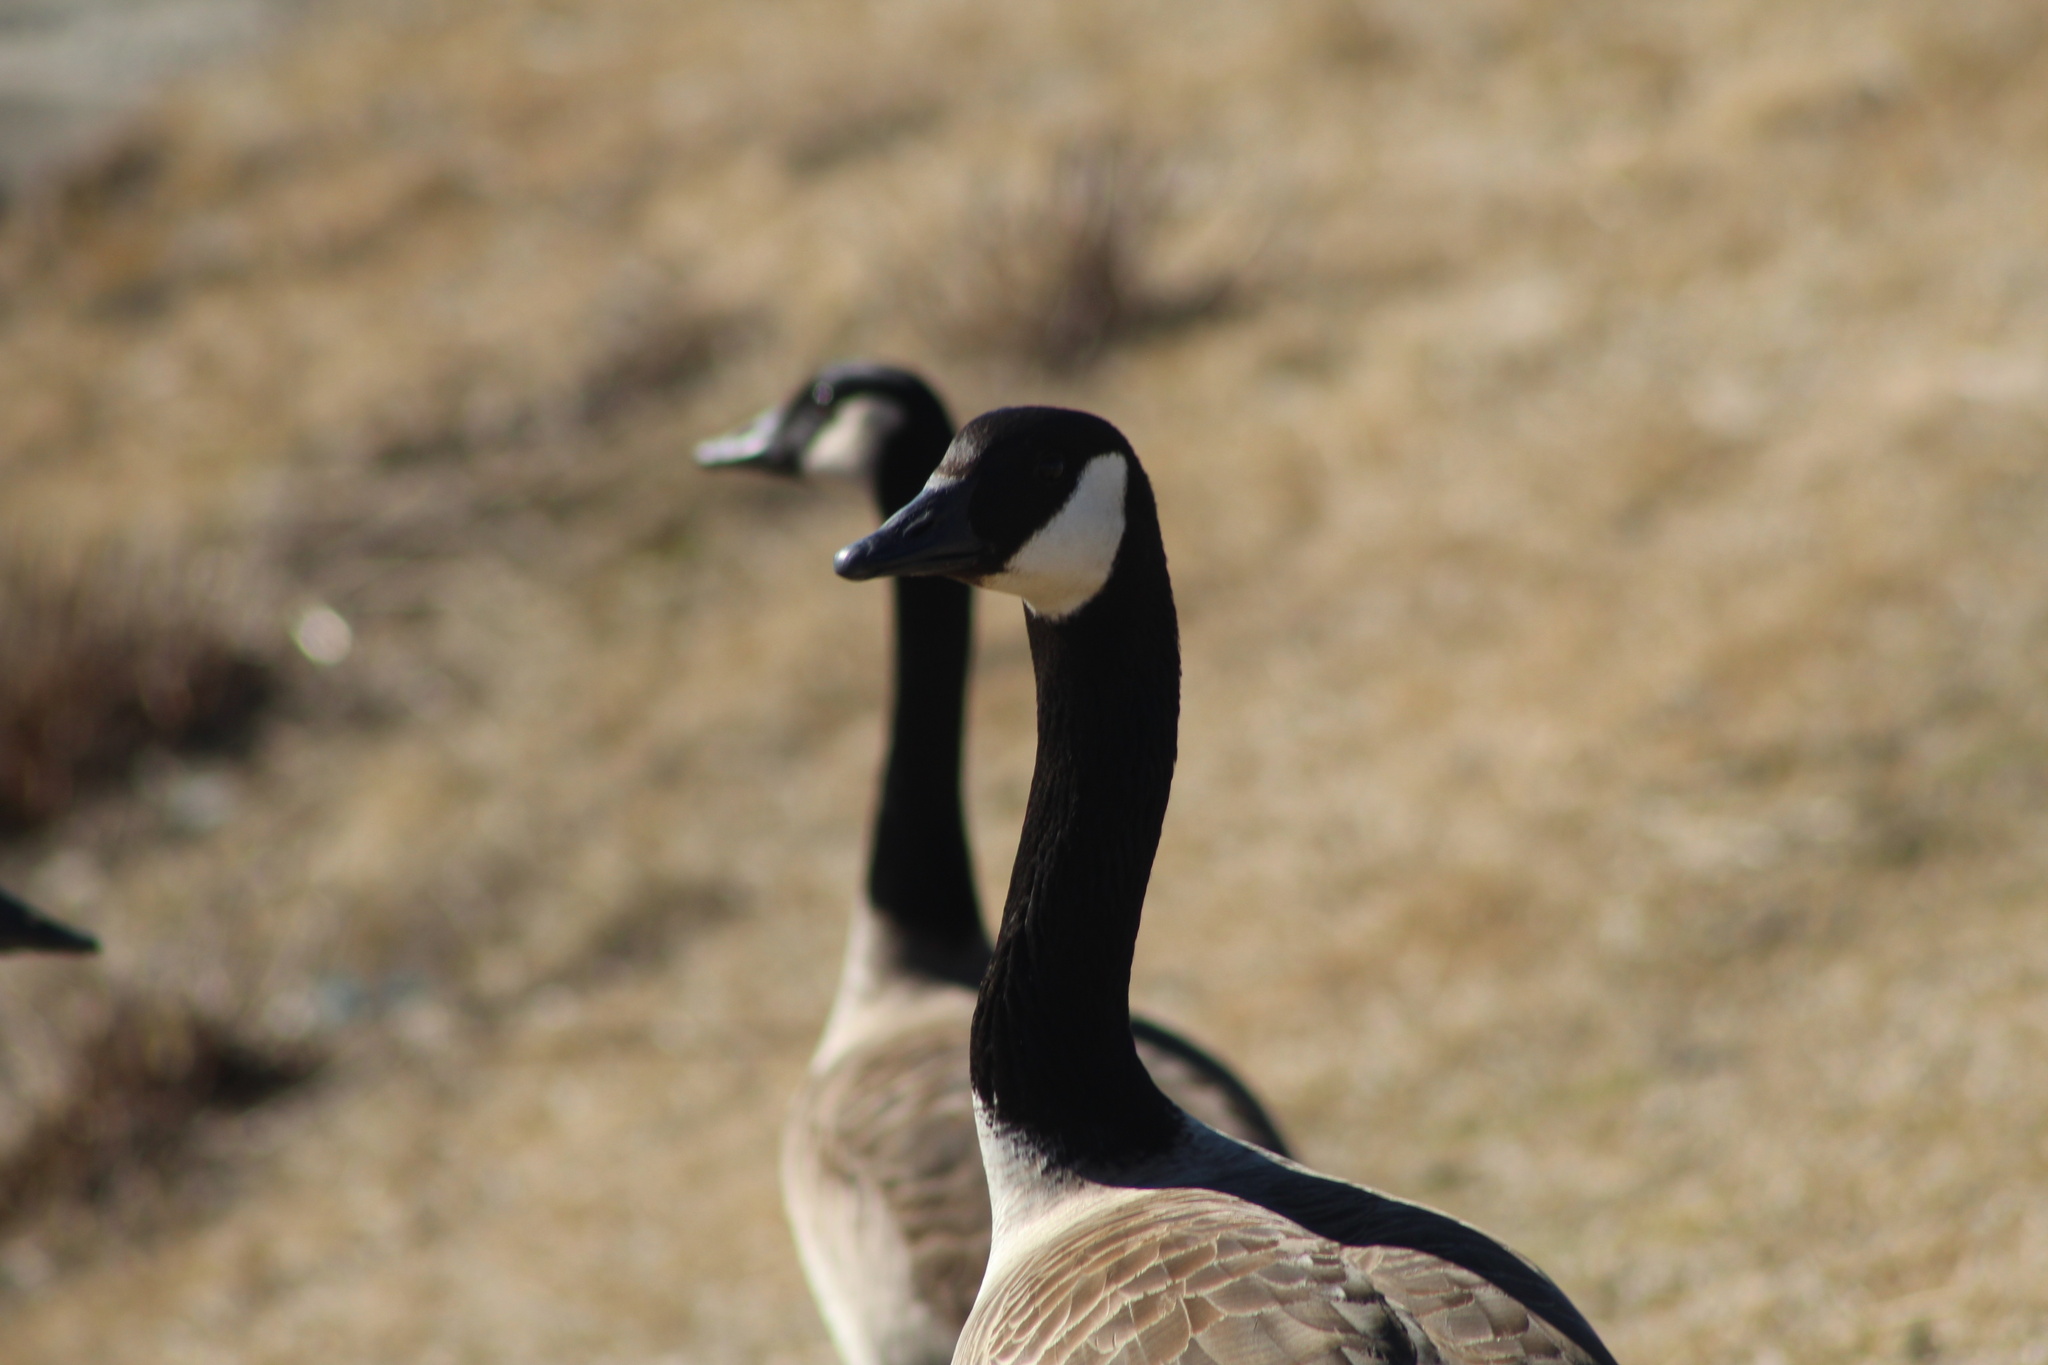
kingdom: Animalia
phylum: Chordata
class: Aves
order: Anseriformes
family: Anatidae
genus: Branta
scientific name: Branta canadensis
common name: Canada goose
